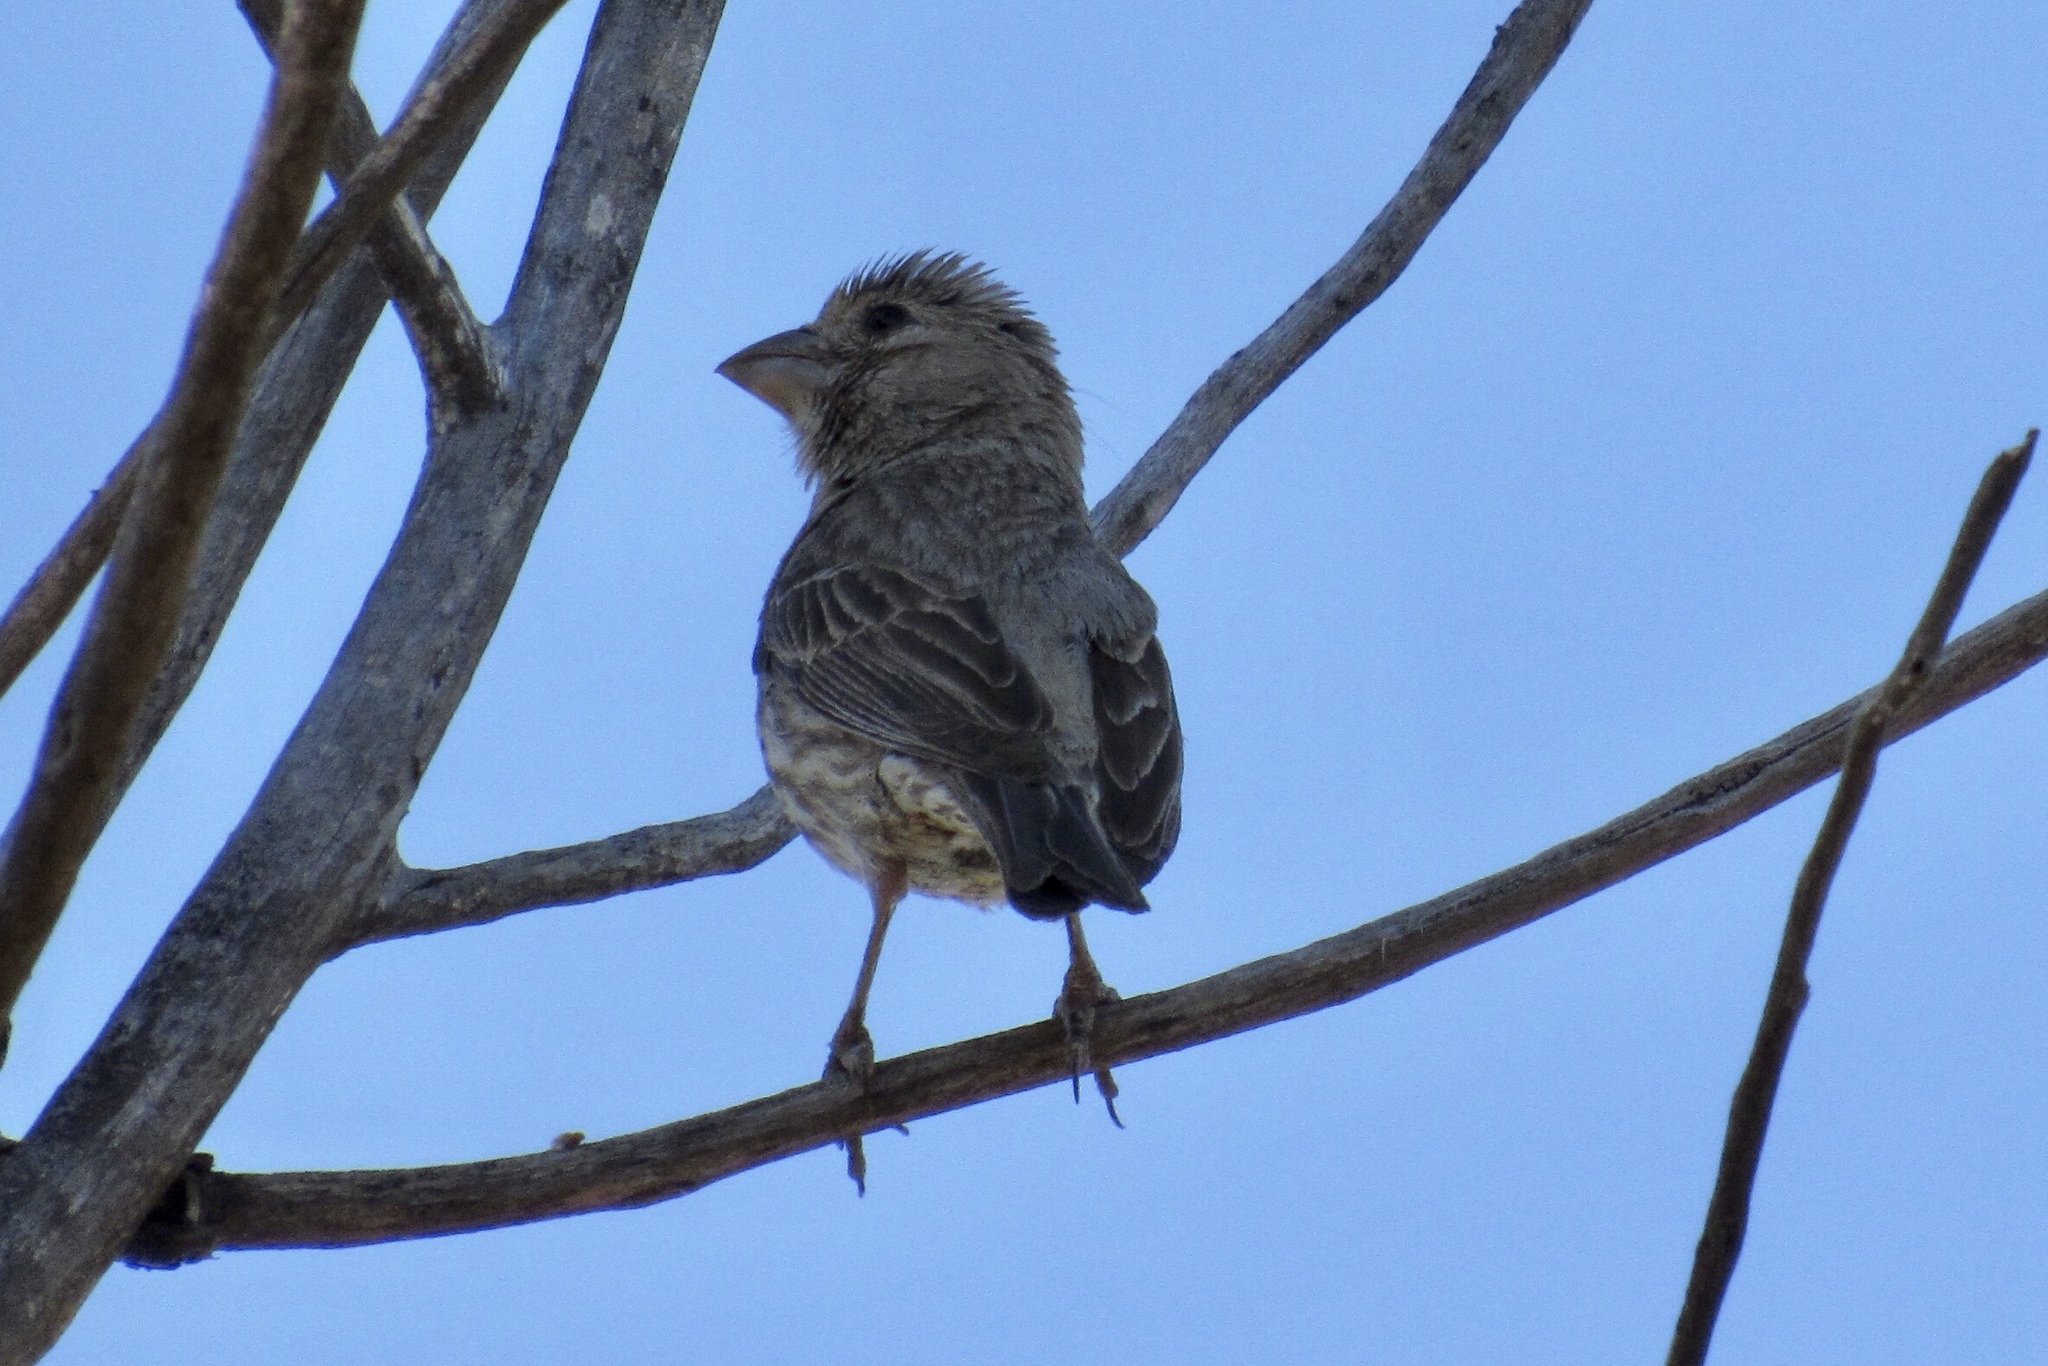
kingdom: Animalia
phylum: Chordata
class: Aves
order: Passeriformes
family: Fringillidae
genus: Haemorhous
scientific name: Haemorhous mexicanus
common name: House finch
